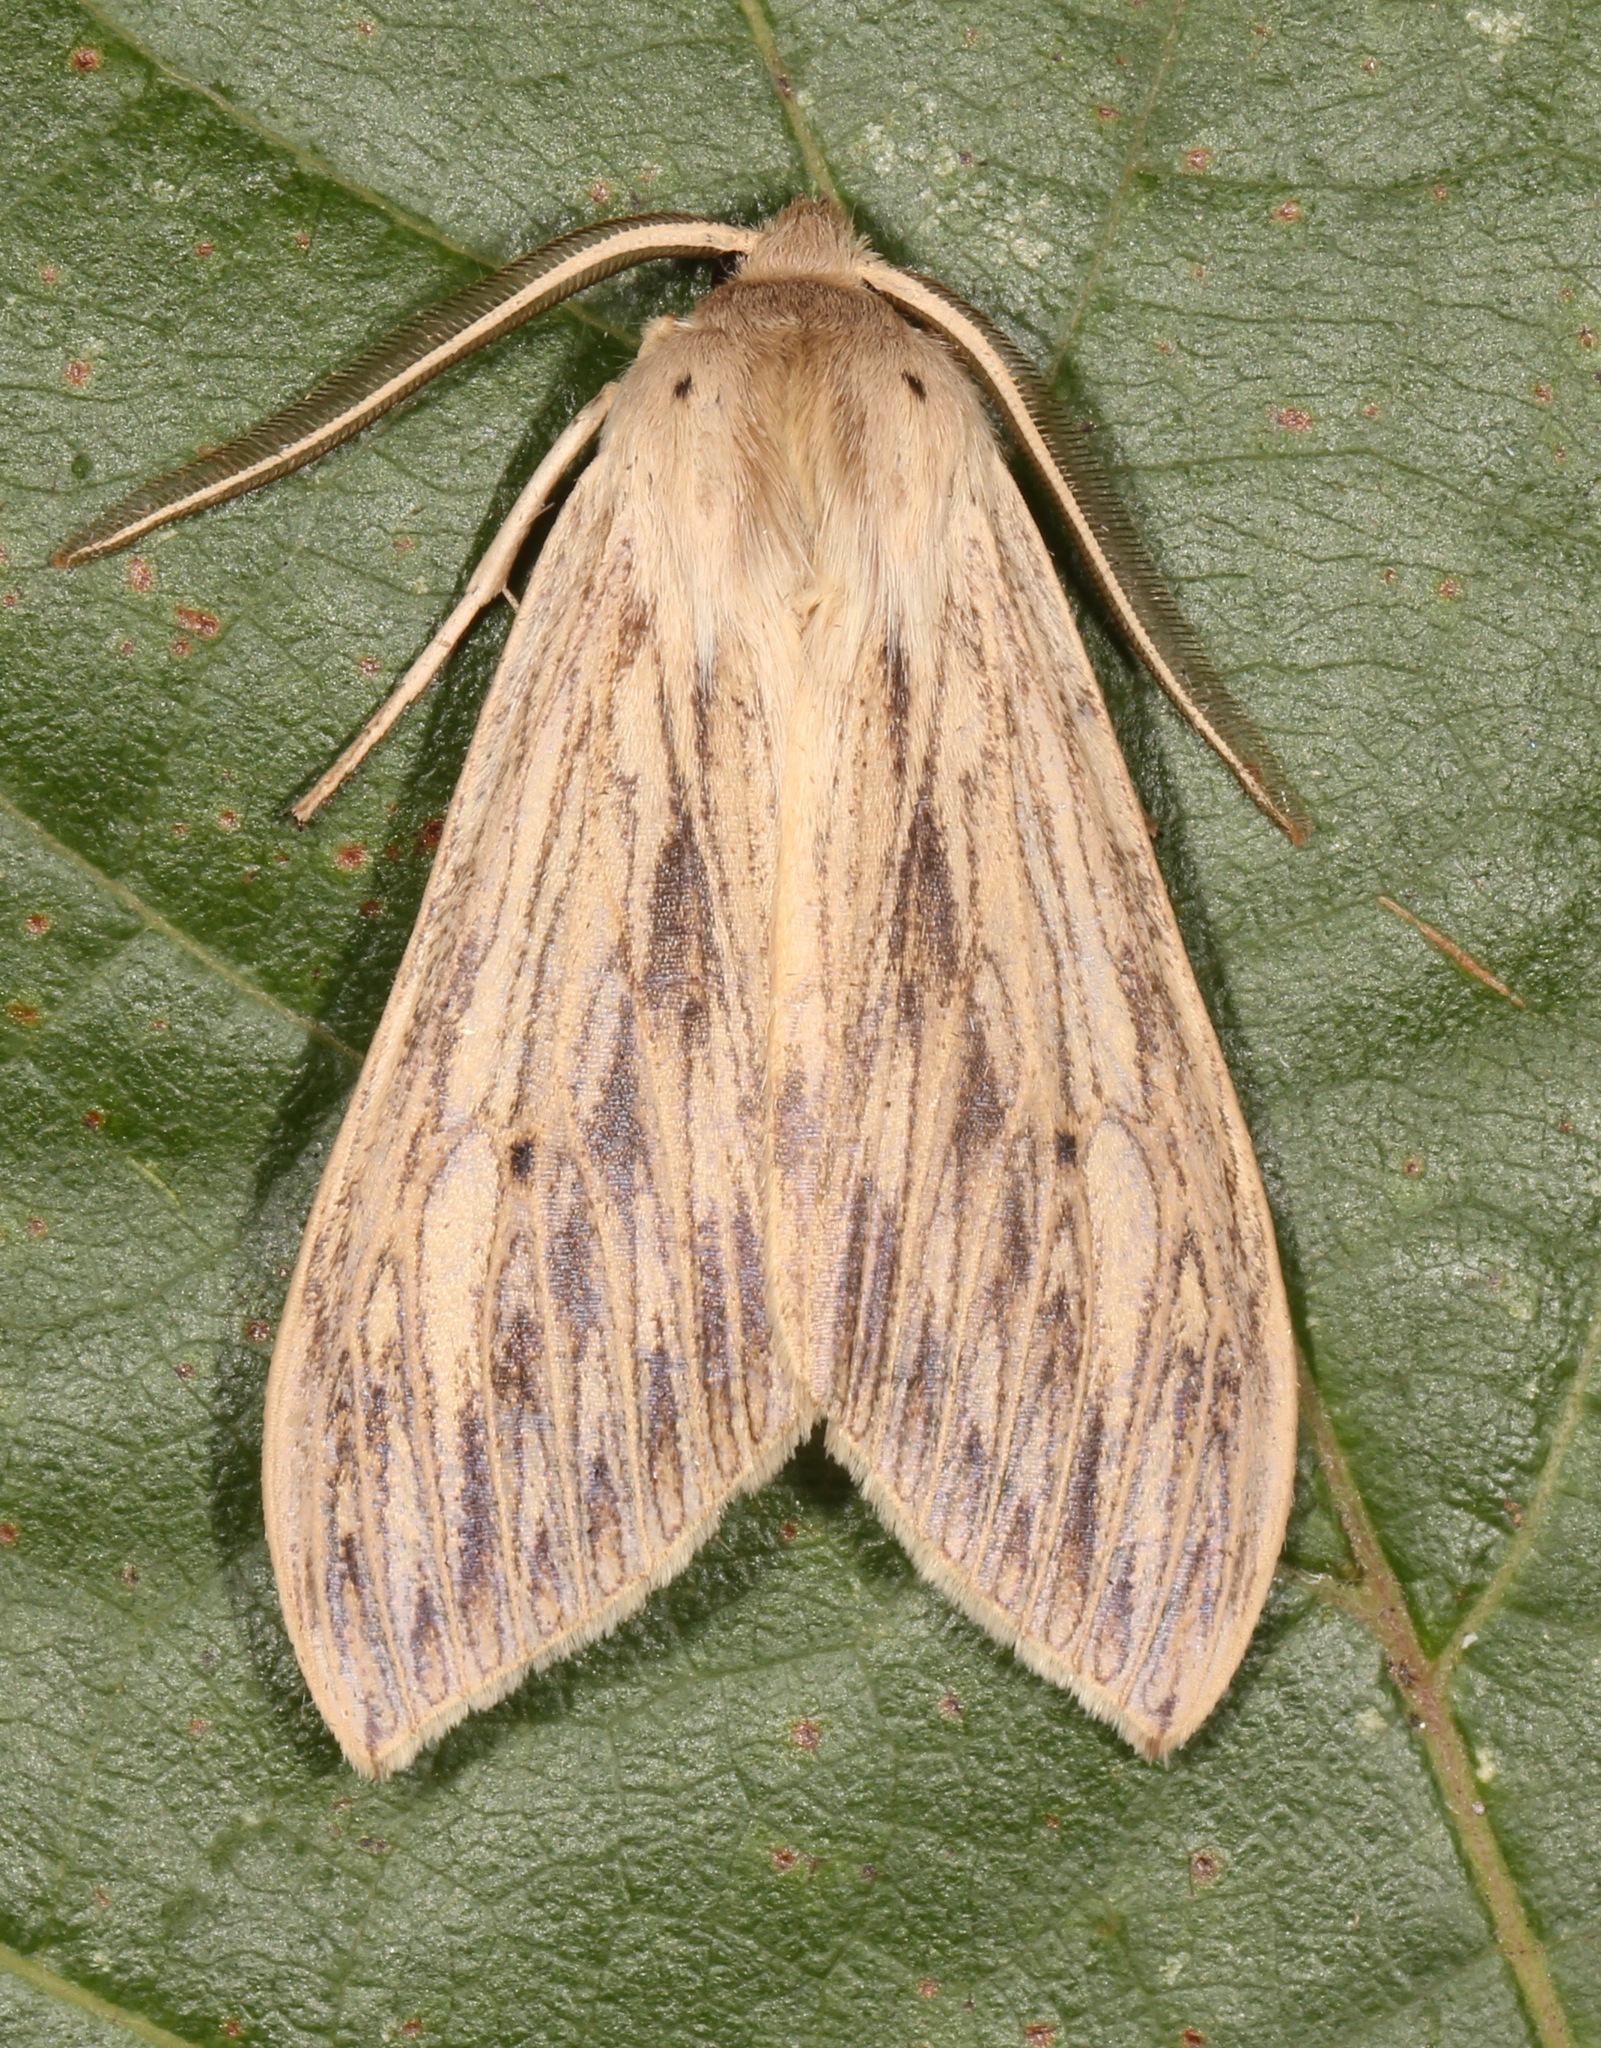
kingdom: Animalia
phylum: Arthropoda
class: Insecta
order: Lepidoptera
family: Erebidae
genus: Leucanopsis
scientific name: Leucanopsis lurida
